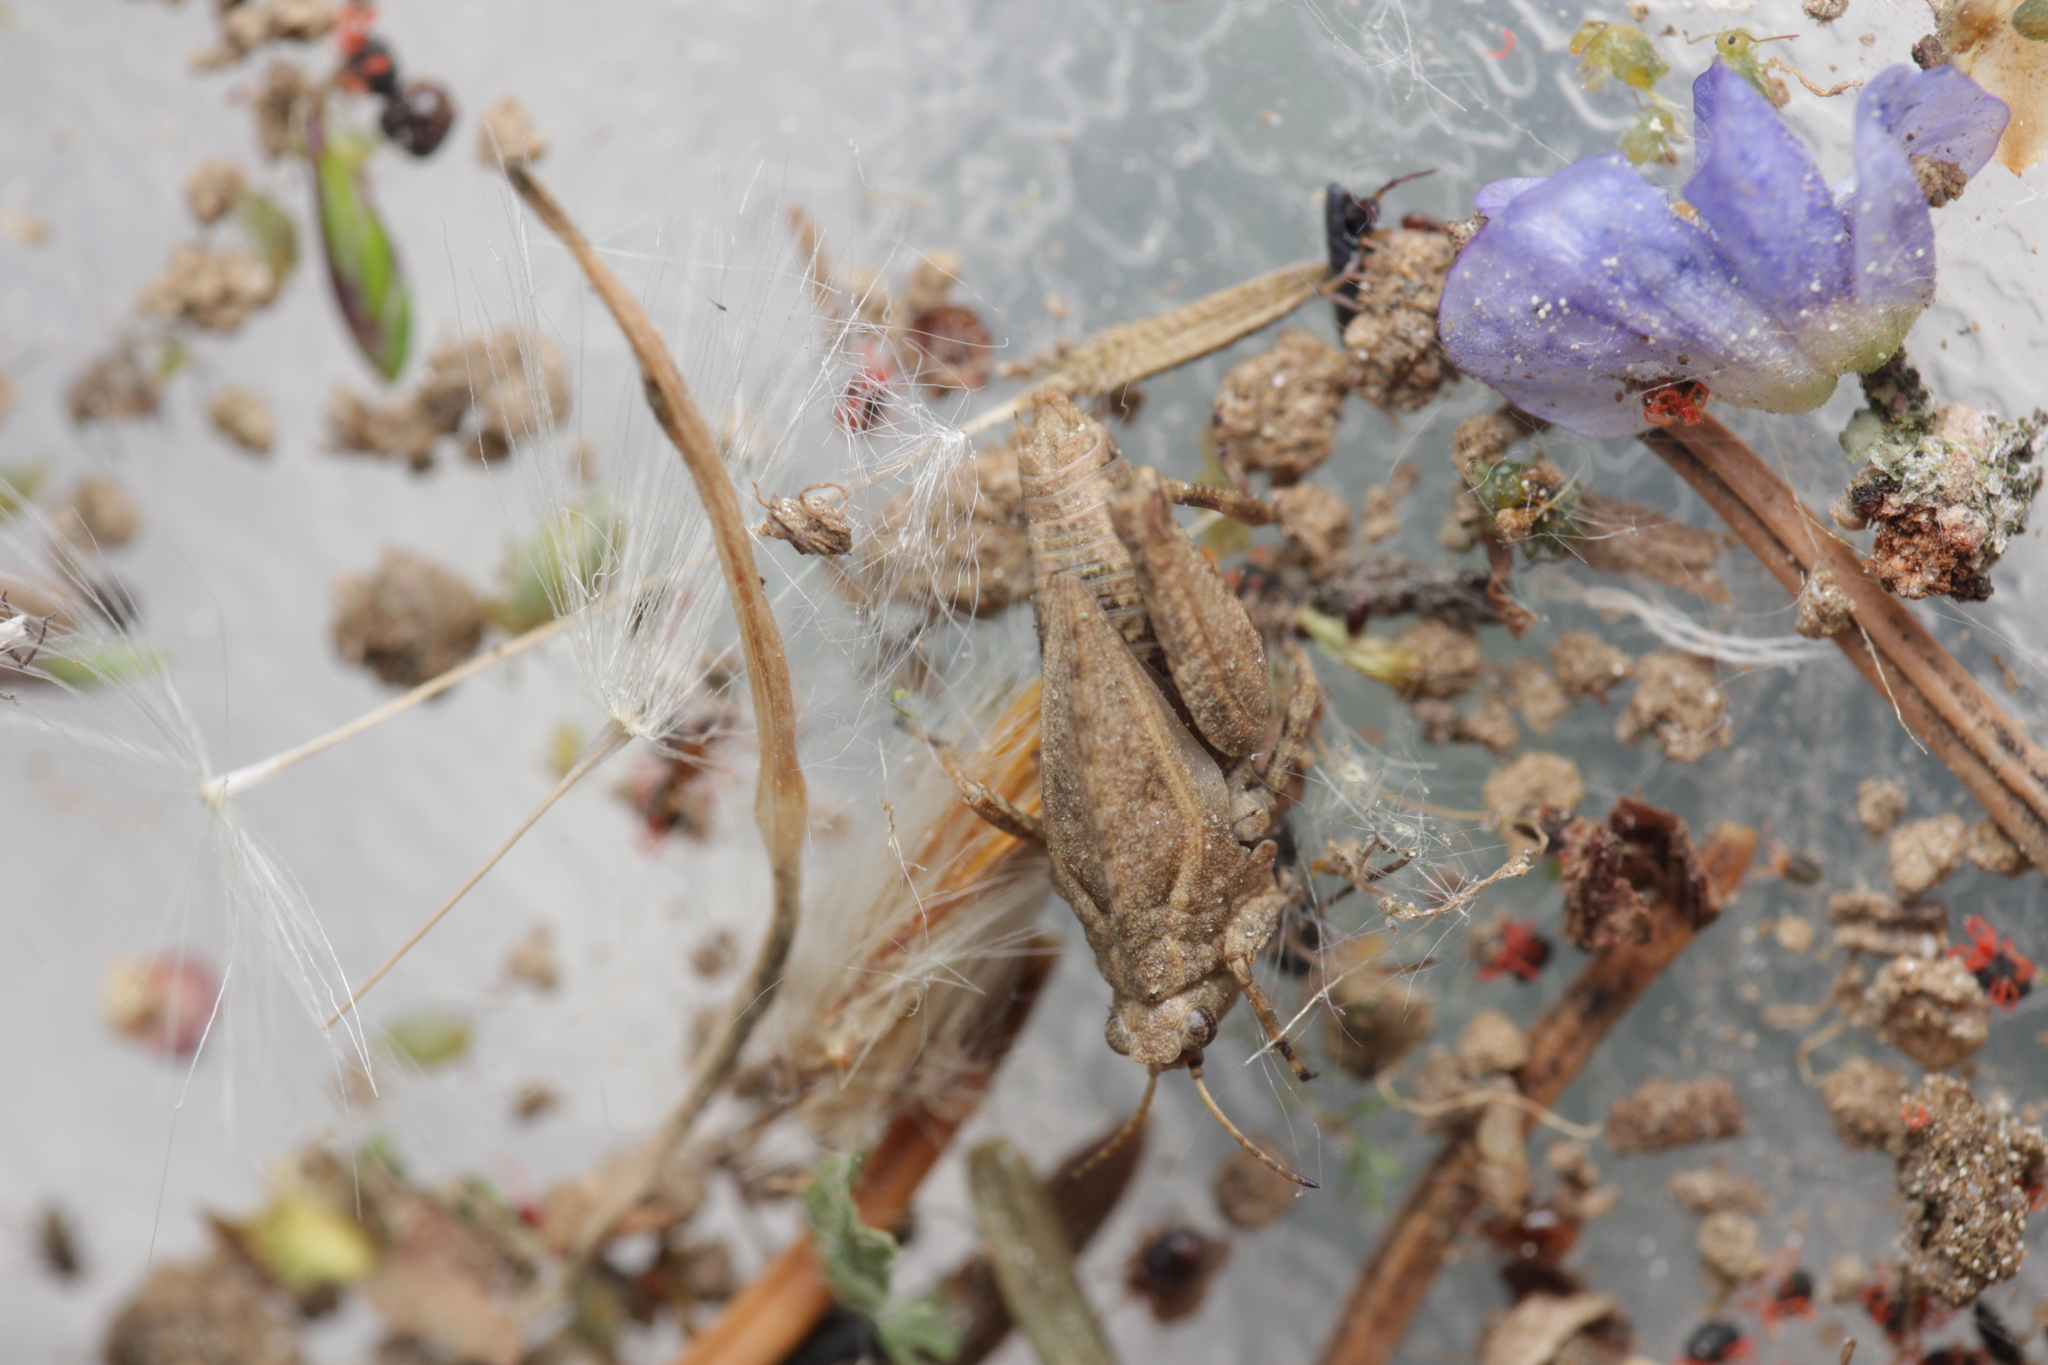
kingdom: Animalia
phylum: Arthropoda
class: Insecta
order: Orthoptera
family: Tetrigidae
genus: Tetrix
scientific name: Tetrix
